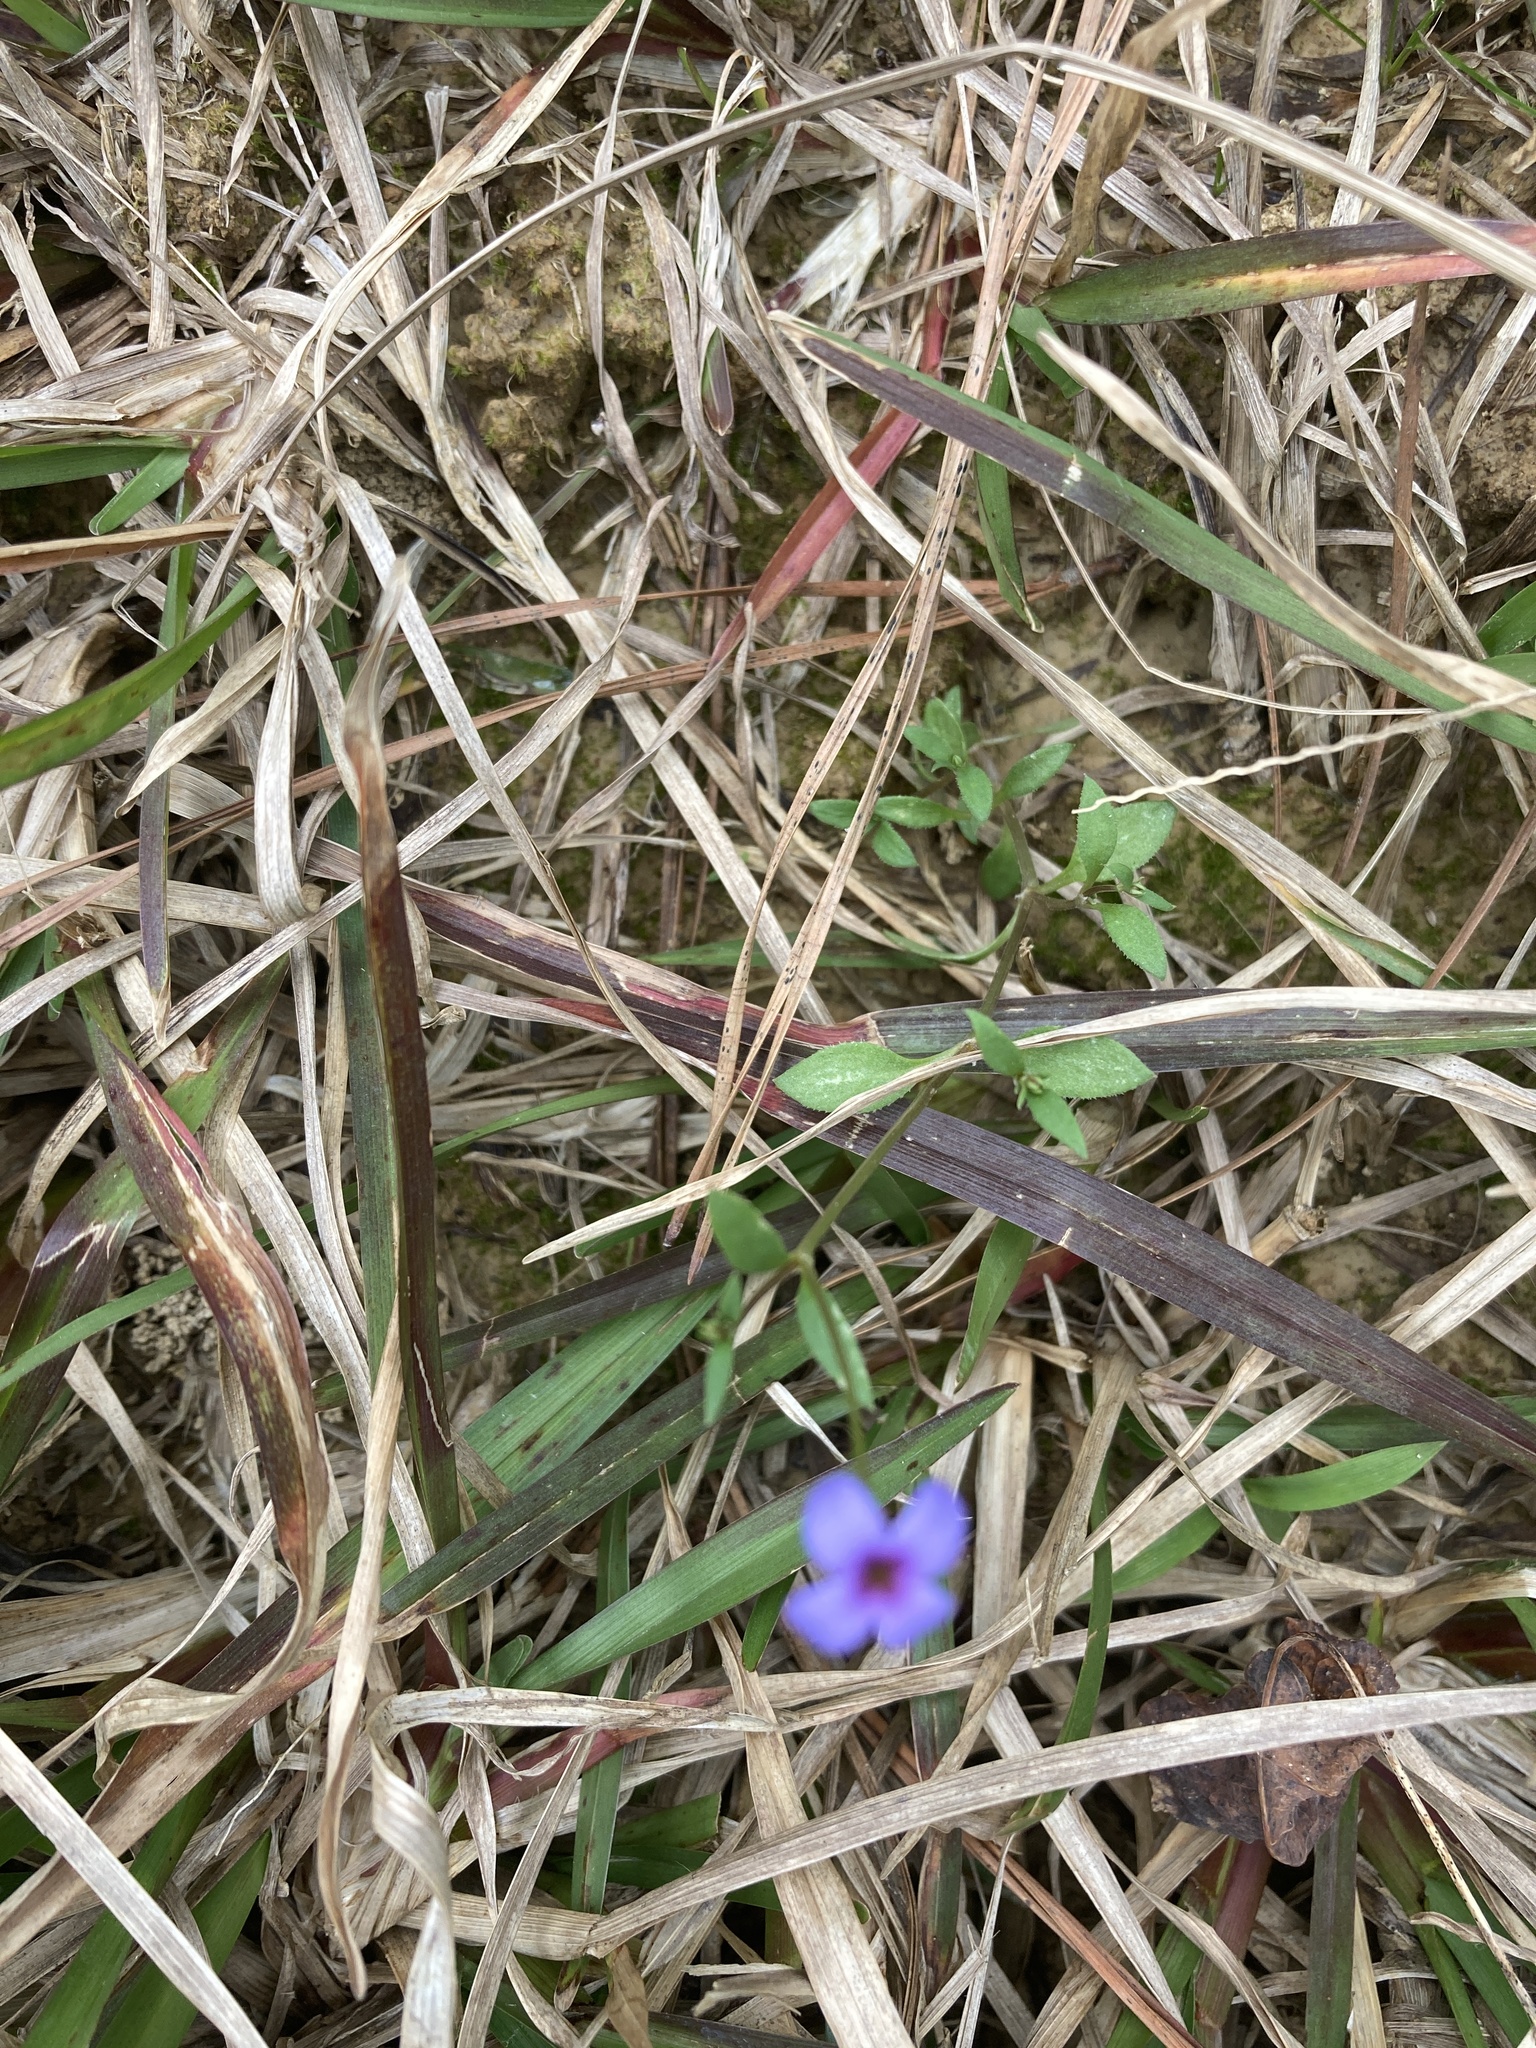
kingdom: Plantae
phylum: Tracheophyta
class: Magnoliopsida
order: Gentianales
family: Rubiaceae
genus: Houstonia
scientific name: Houstonia pusilla
